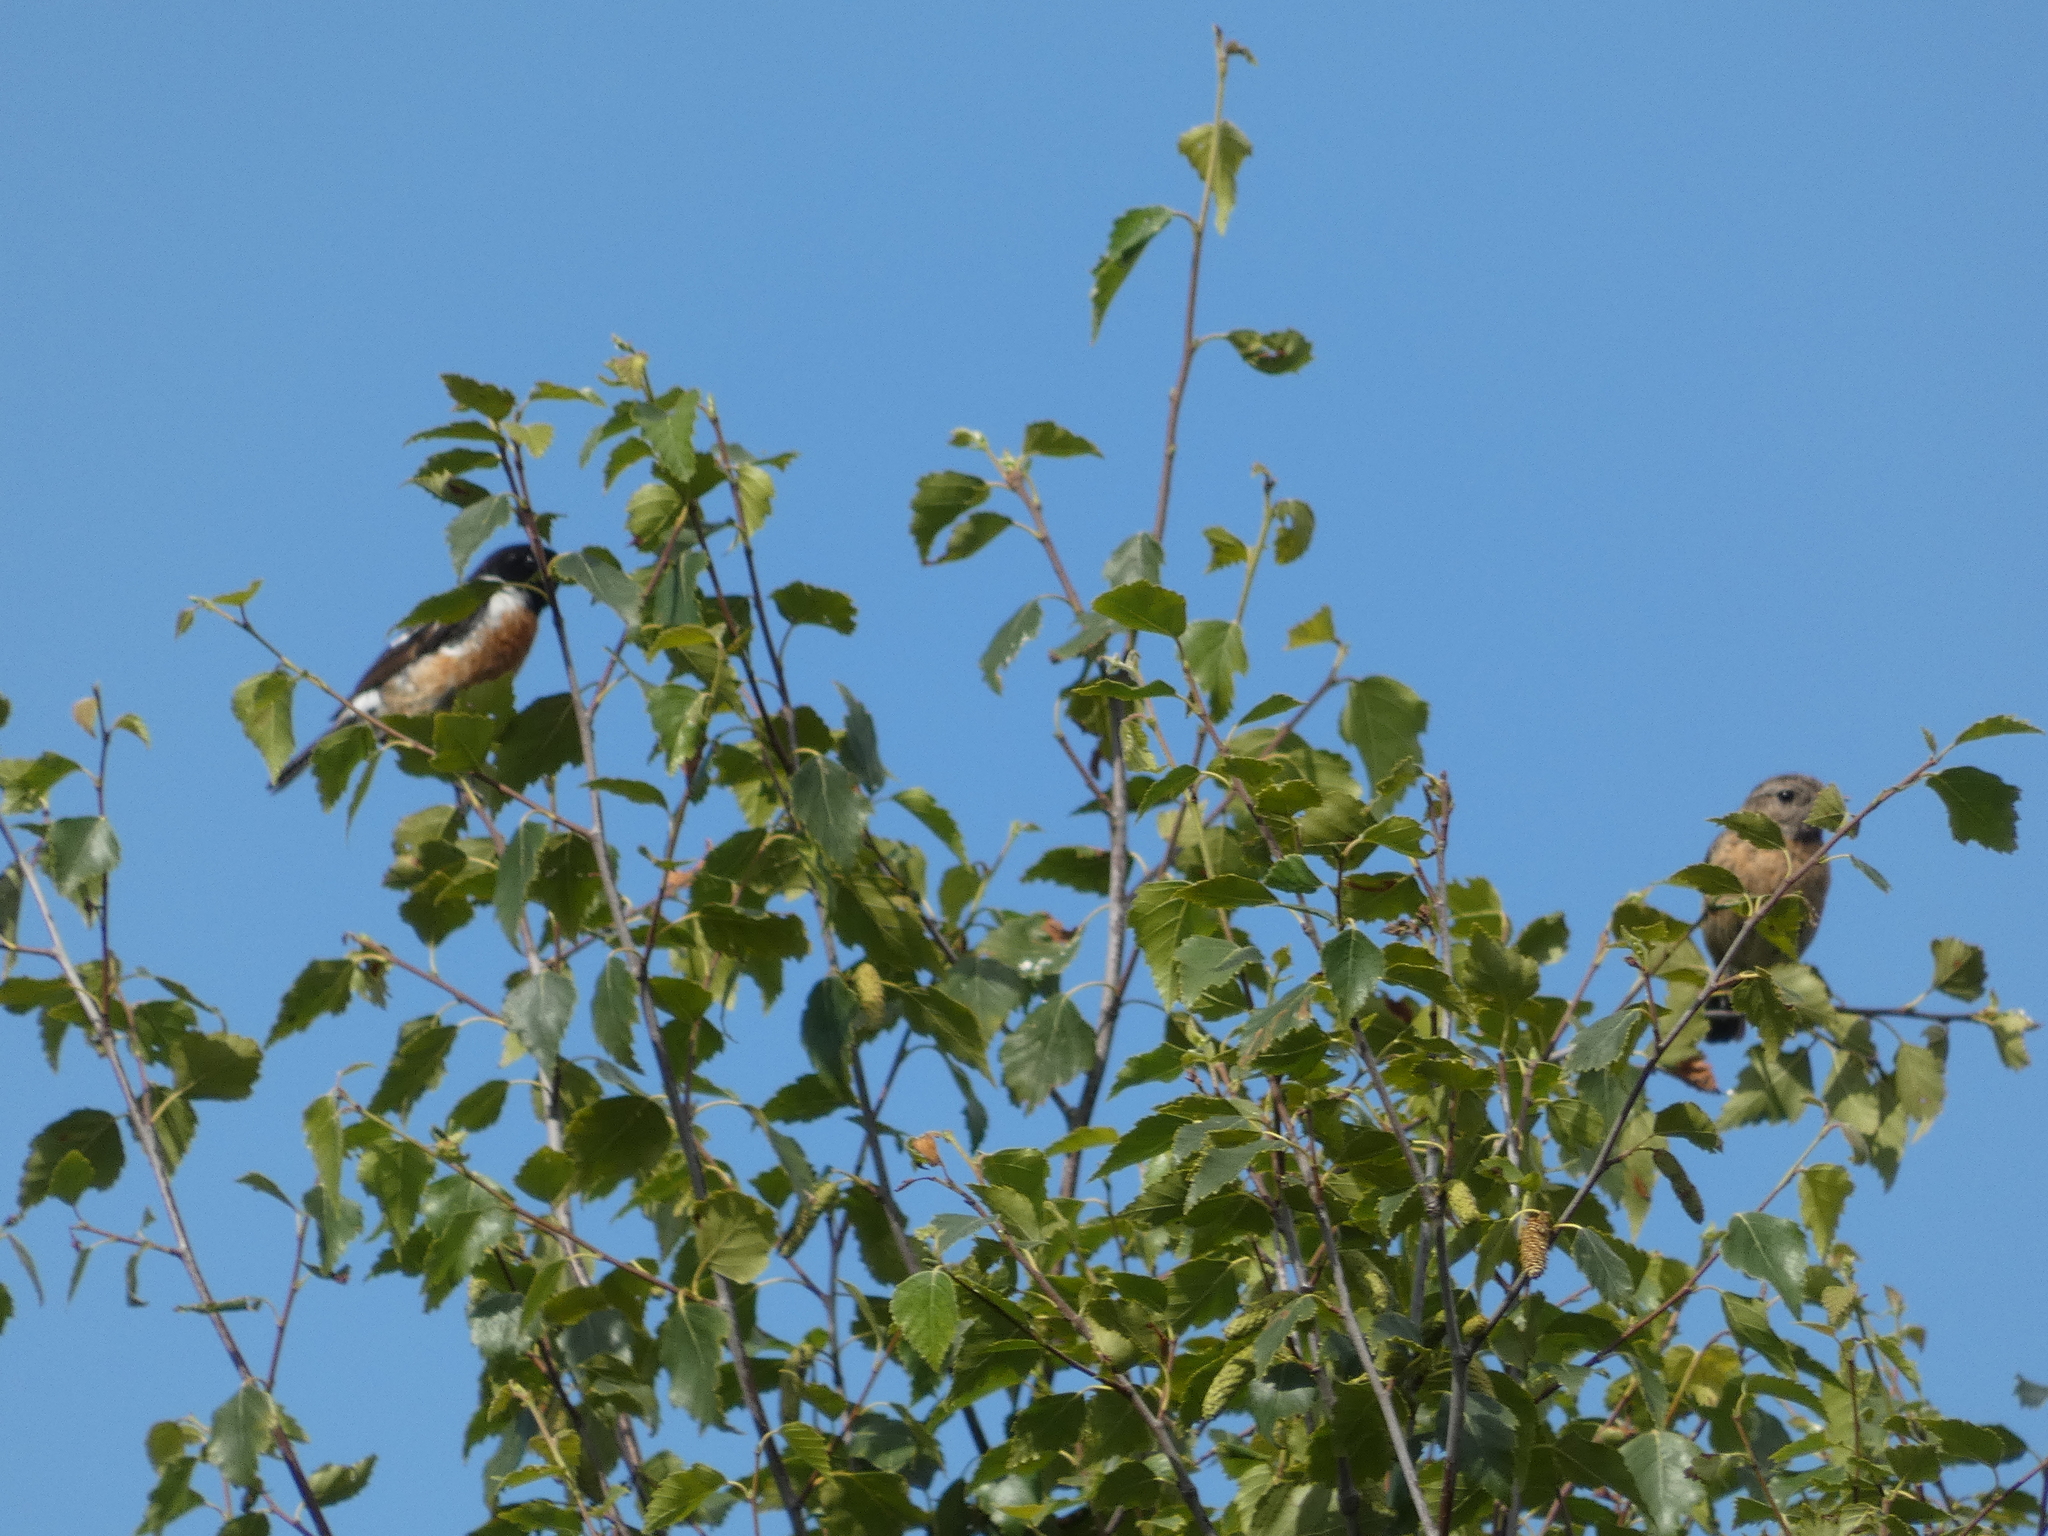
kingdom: Animalia
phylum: Chordata
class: Aves
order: Passeriformes
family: Muscicapidae
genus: Saxicola
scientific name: Saxicola rubicola
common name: European stonechat
